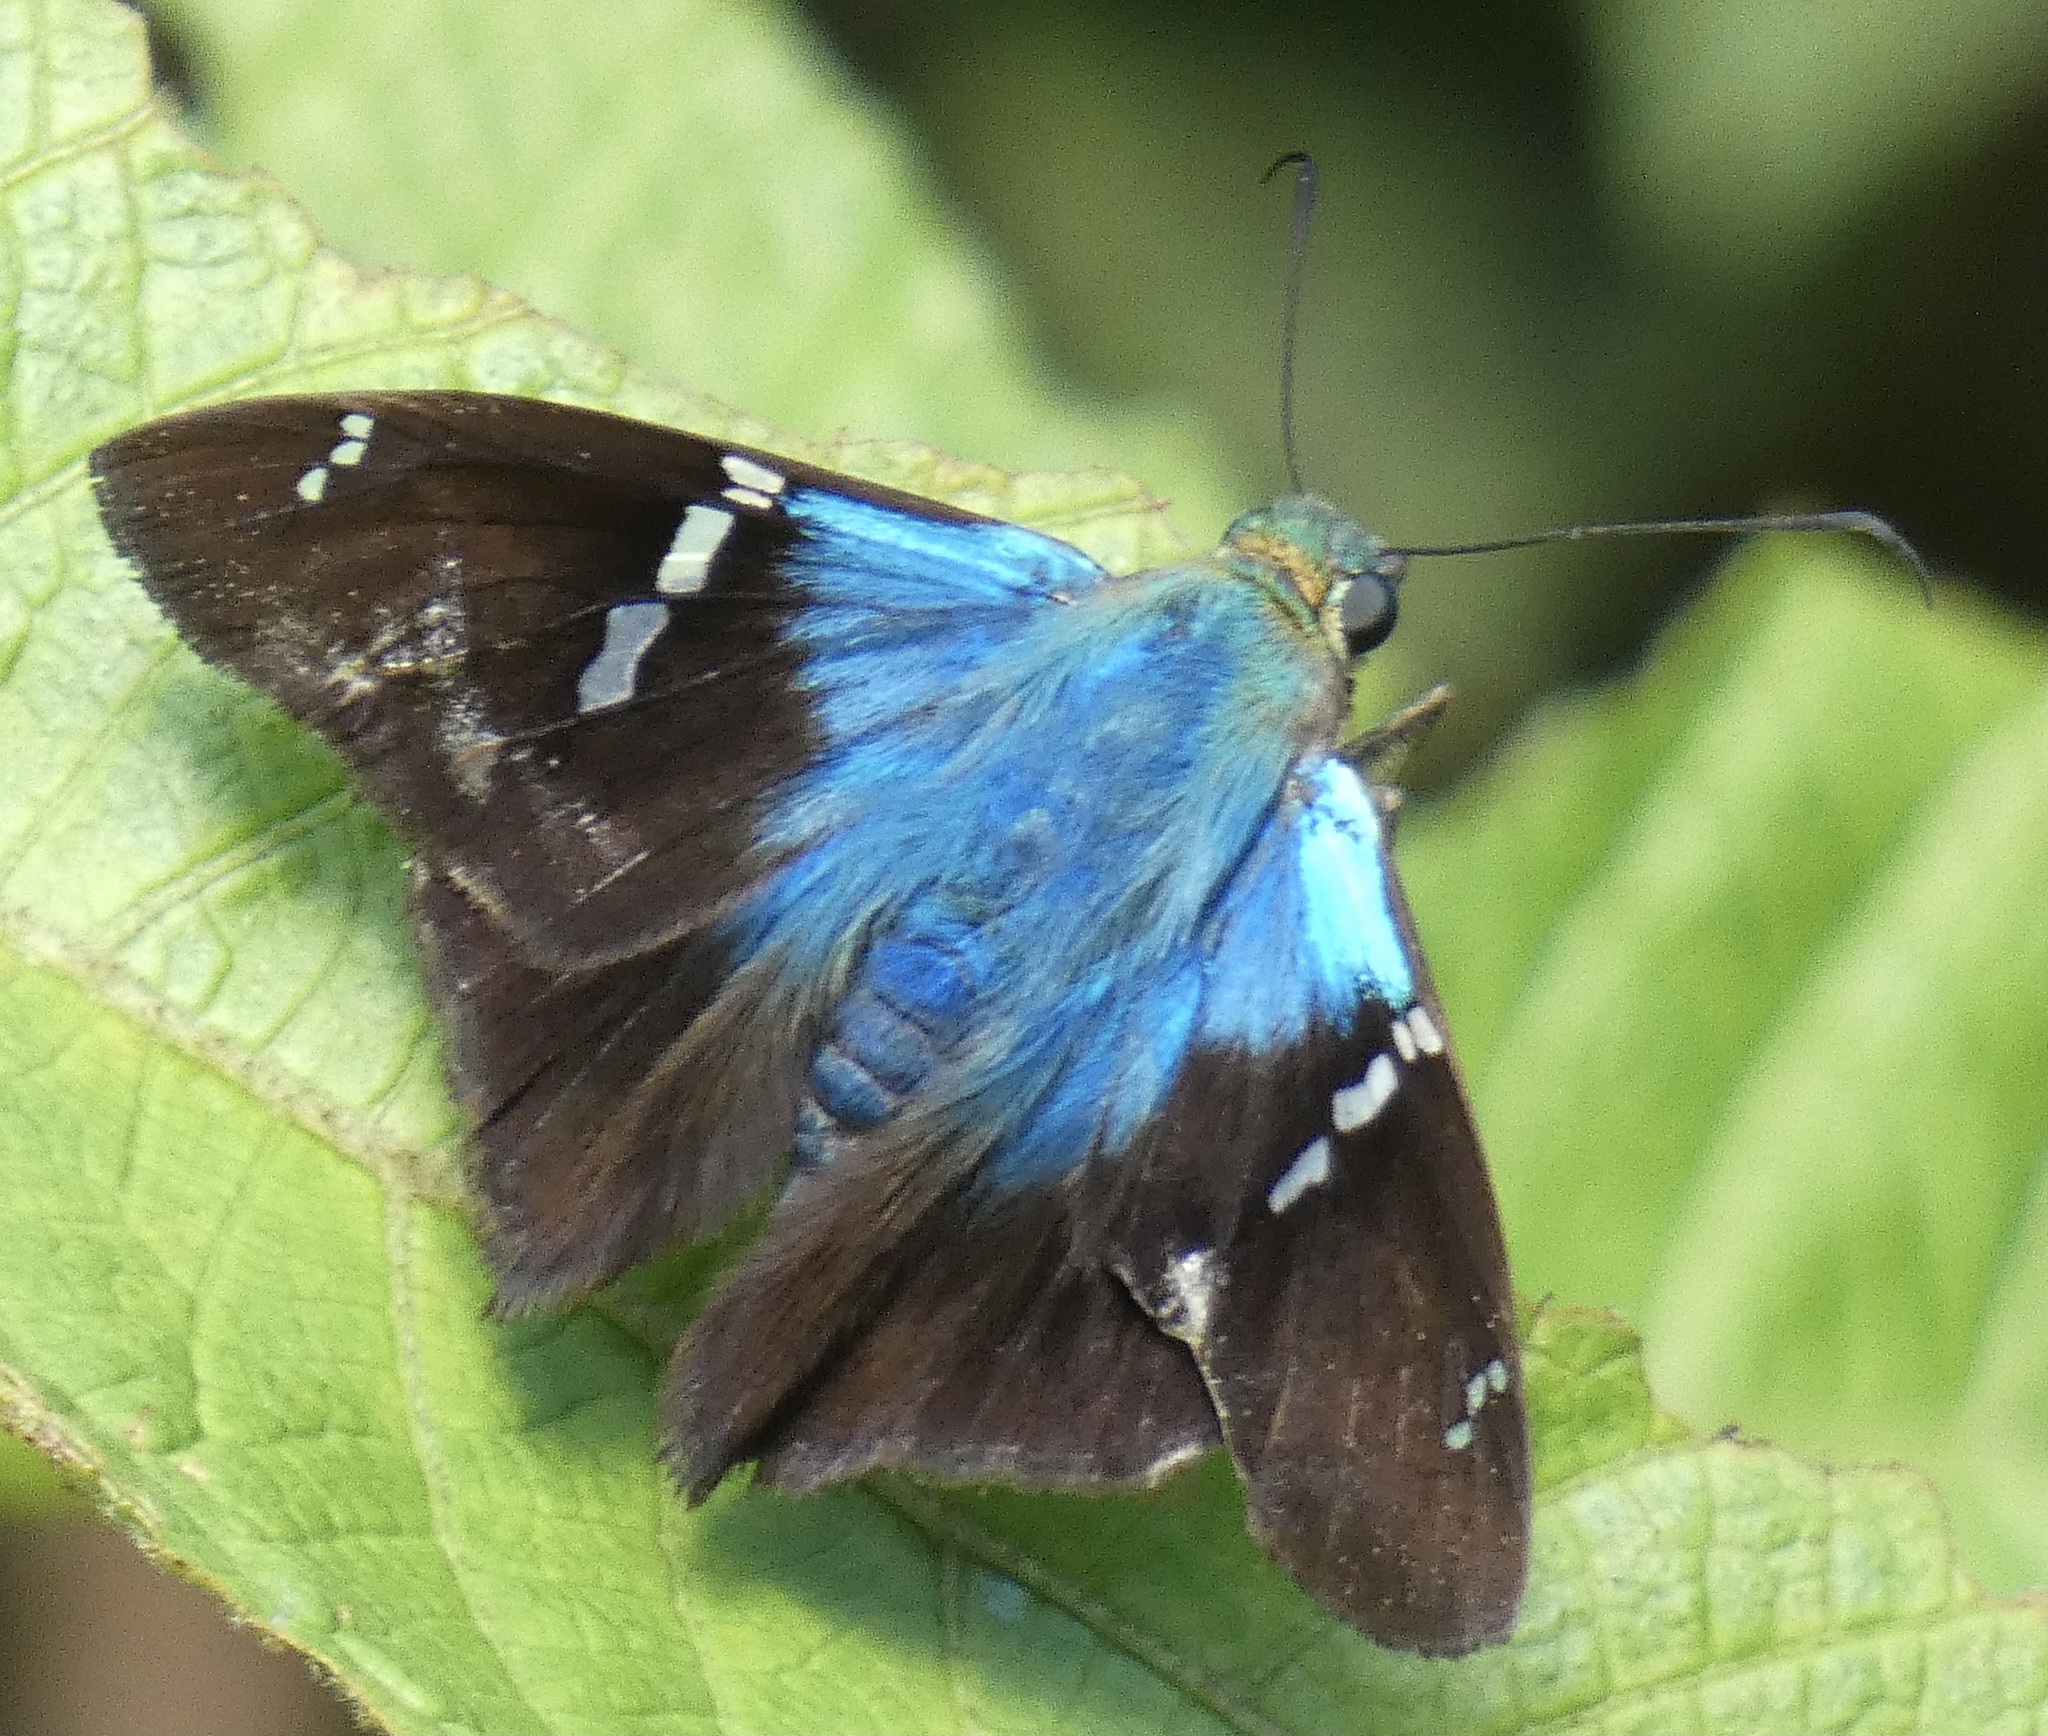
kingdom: Animalia
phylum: Arthropoda
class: Insecta
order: Lepidoptera
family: Hesperiidae
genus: Astraptes
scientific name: Astraptes fulgerator
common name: Two-barred flasher
